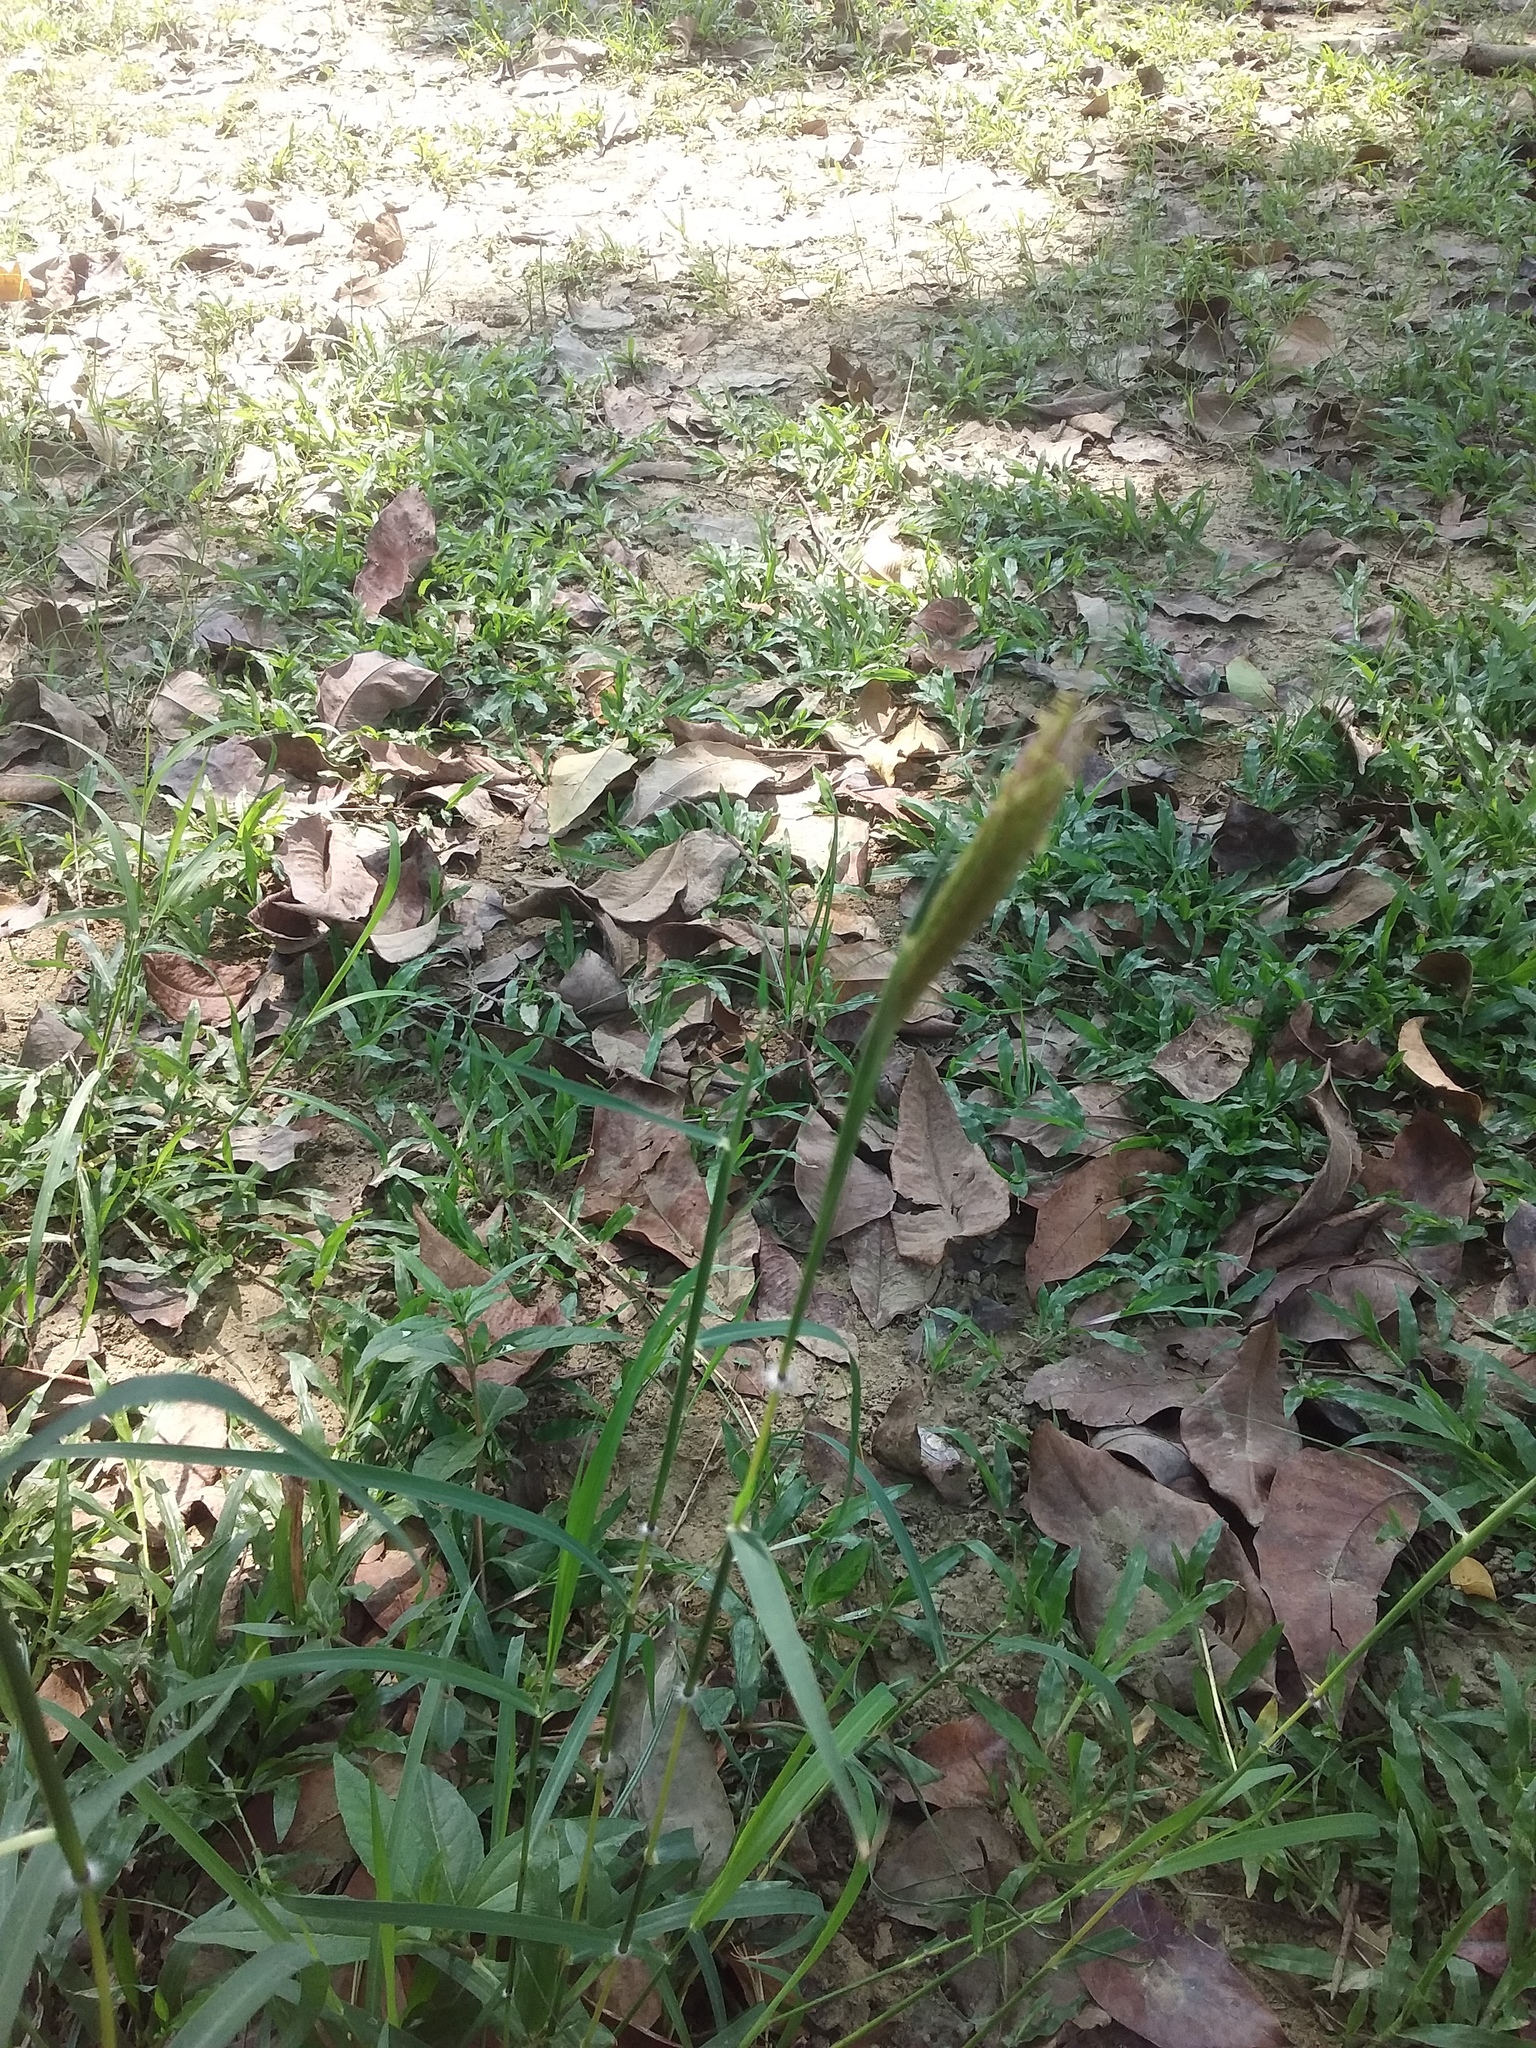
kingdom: Plantae
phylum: Tracheophyta
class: Liliopsida
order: Poales
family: Poaceae
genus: Dichanthium
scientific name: Dichanthium annulatum
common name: Kleberg's bluestem
